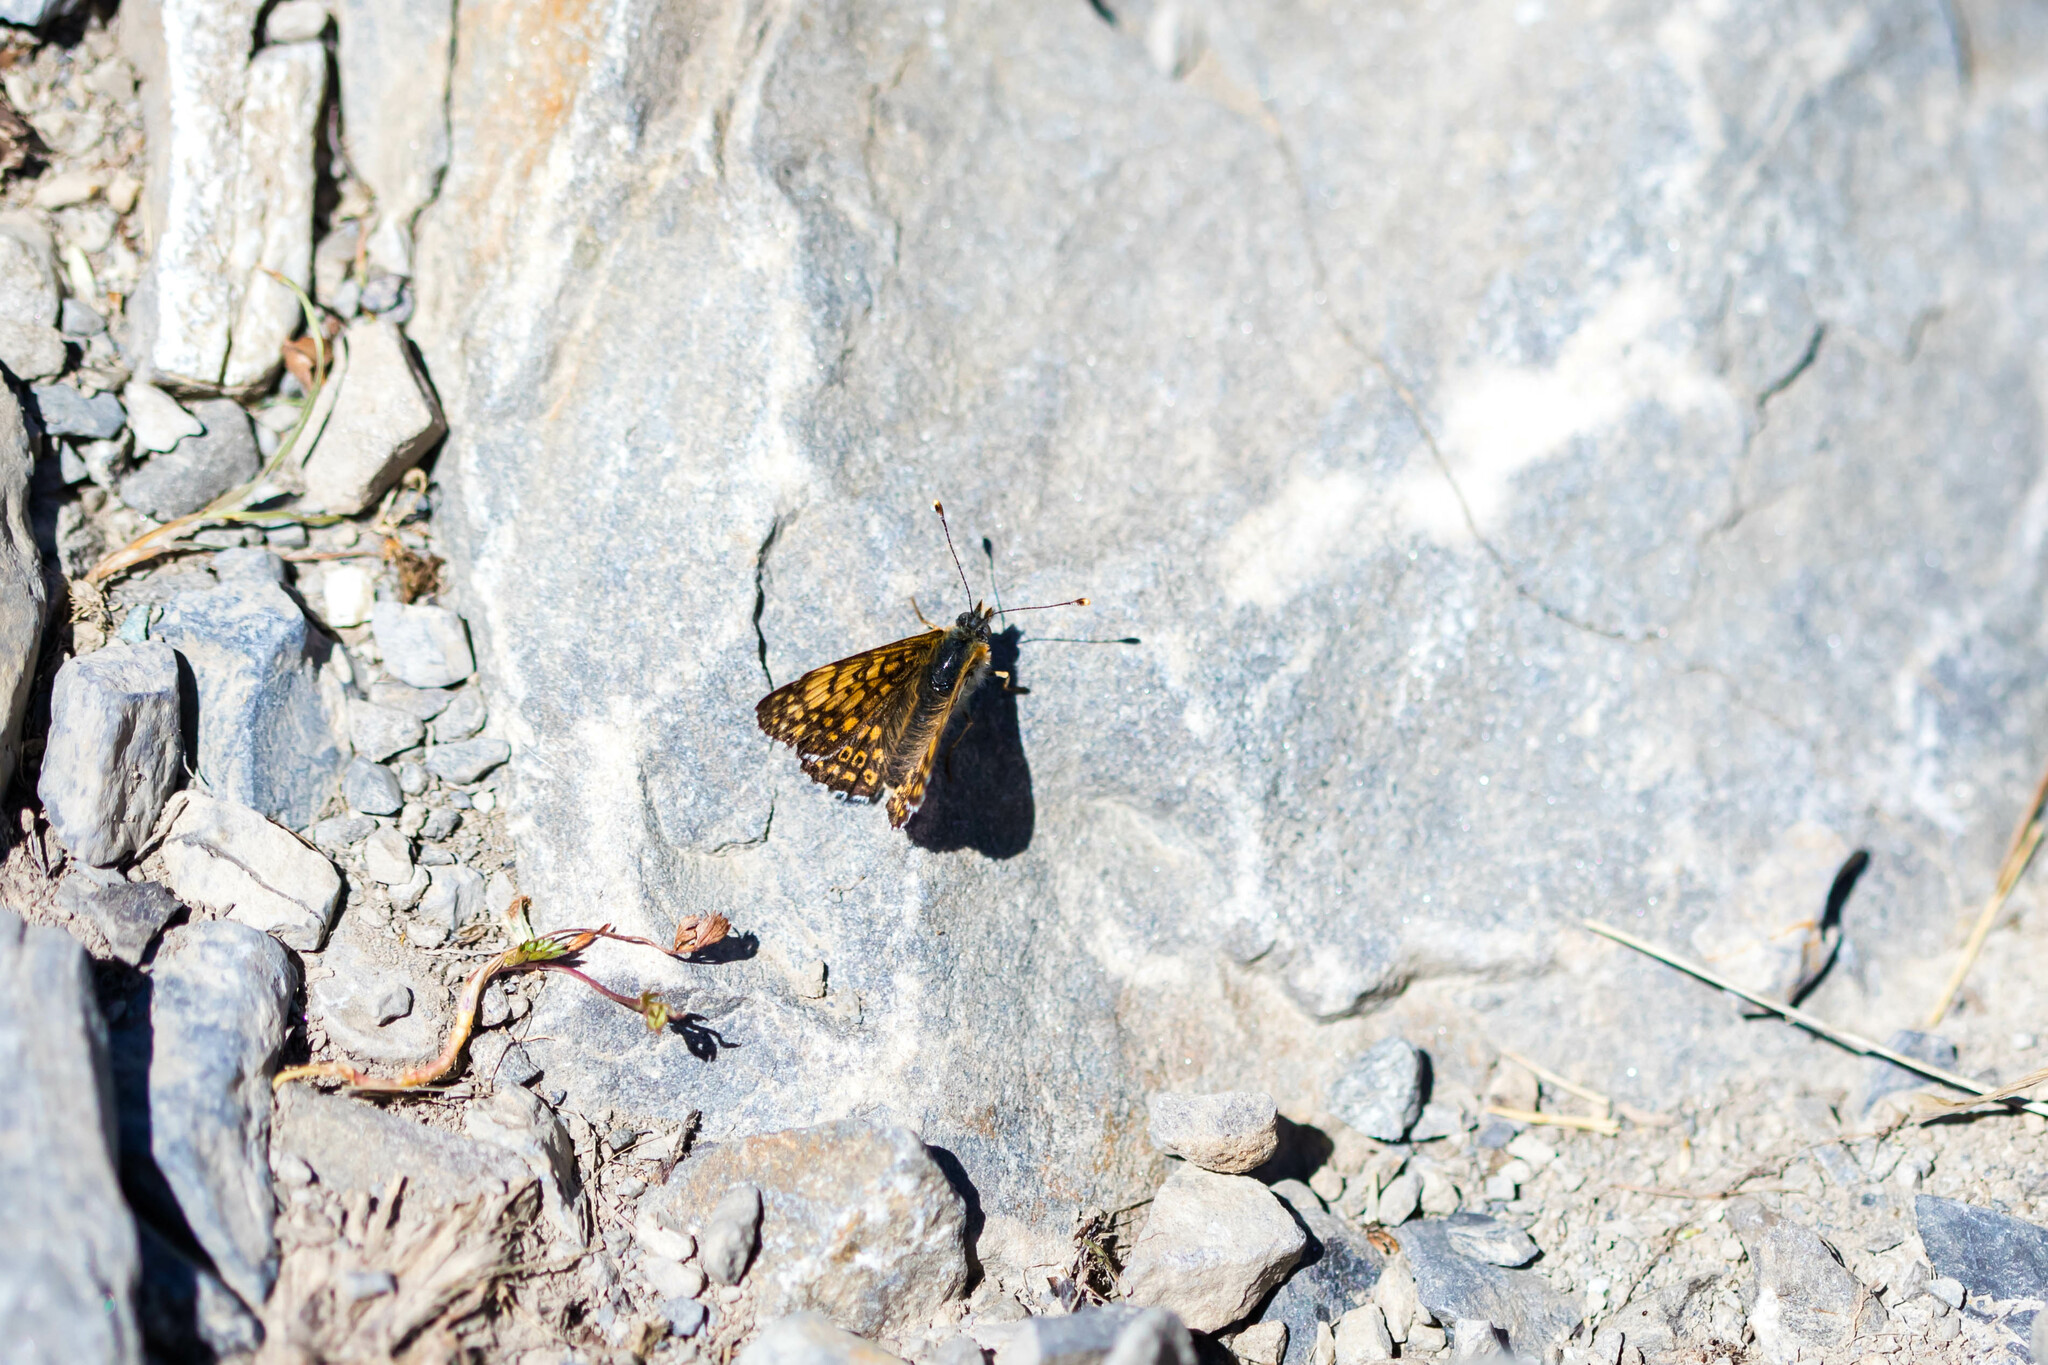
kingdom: Animalia
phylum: Arthropoda
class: Insecta
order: Lepidoptera
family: Nymphalidae
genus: Melitaea
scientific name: Melitaea cinxia
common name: Glanville fritillary
